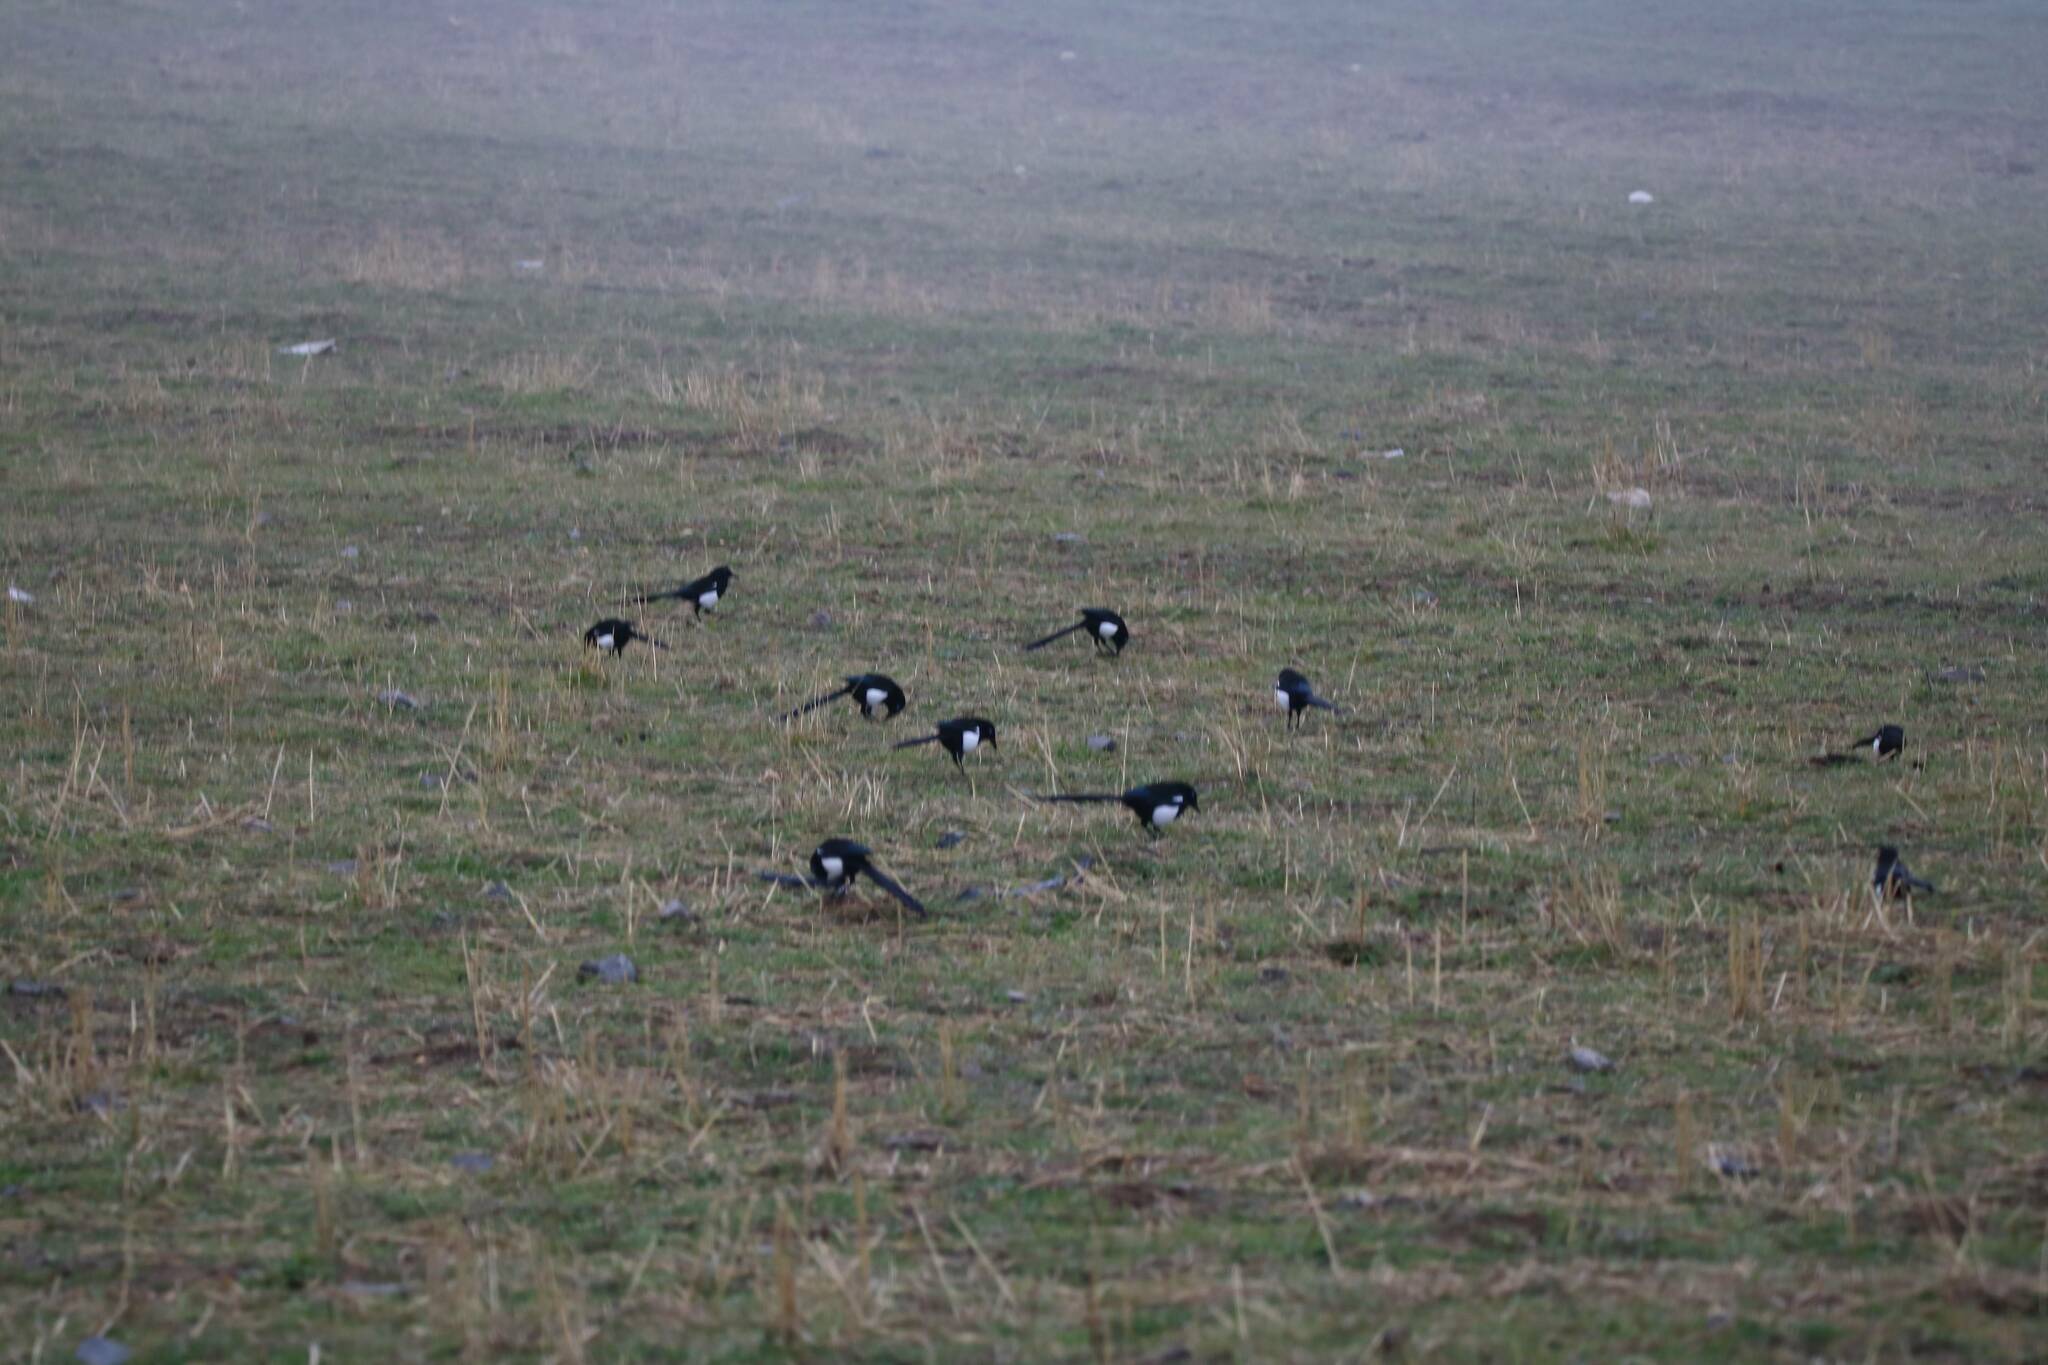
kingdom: Animalia
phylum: Chordata
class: Aves
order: Passeriformes
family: Corvidae
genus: Pica
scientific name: Pica mauritanica
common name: Maghreb magpie
